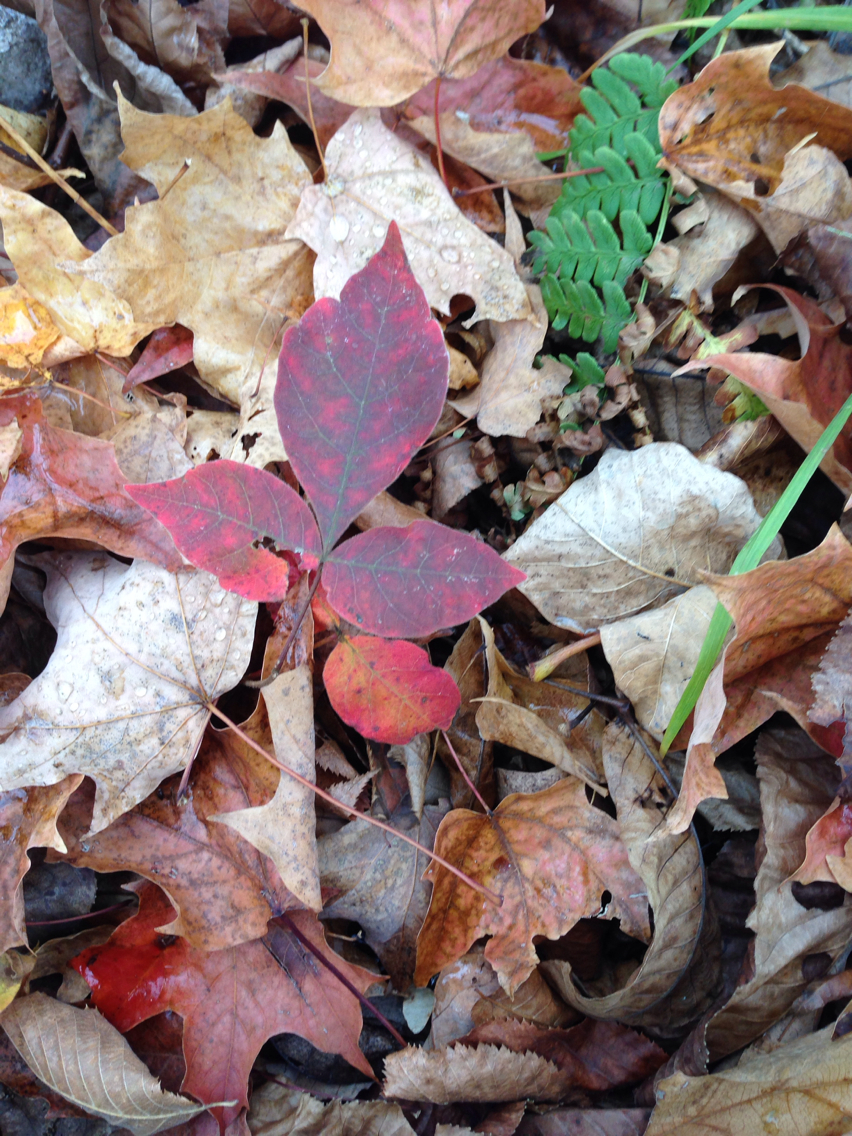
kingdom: Plantae
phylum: Tracheophyta
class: Magnoliopsida
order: Sapindales
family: Anacardiaceae
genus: Rhus
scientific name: Rhus aromatica
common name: Aromatic sumac
